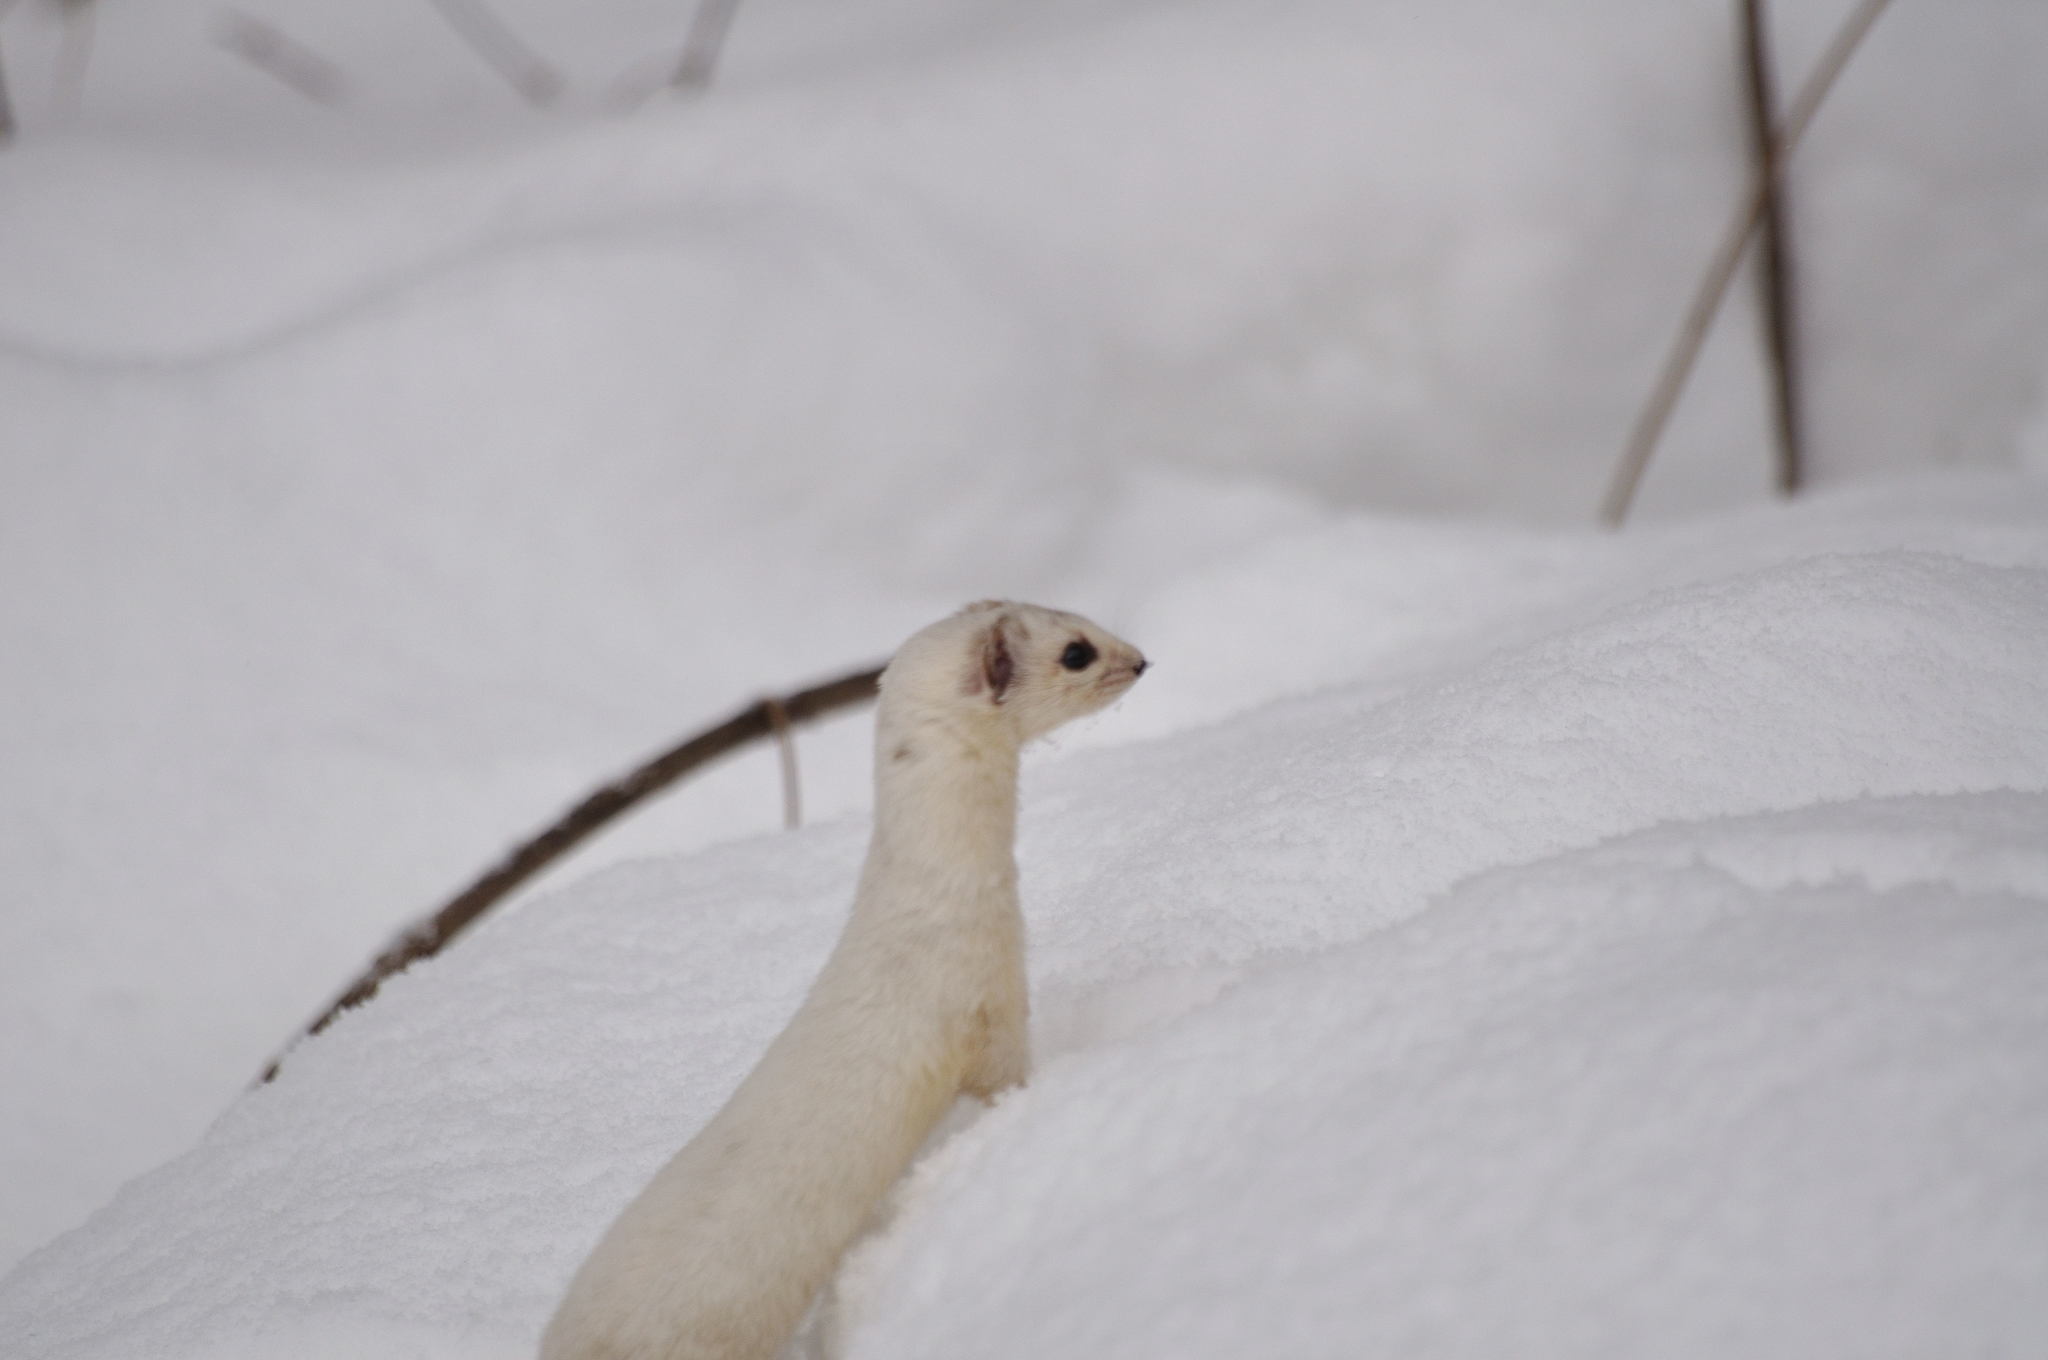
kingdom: Animalia
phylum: Chordata
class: Mammalia
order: Carnivora
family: Mustelidae
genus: Mustela
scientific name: Mustela nivalis
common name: Least weasel
